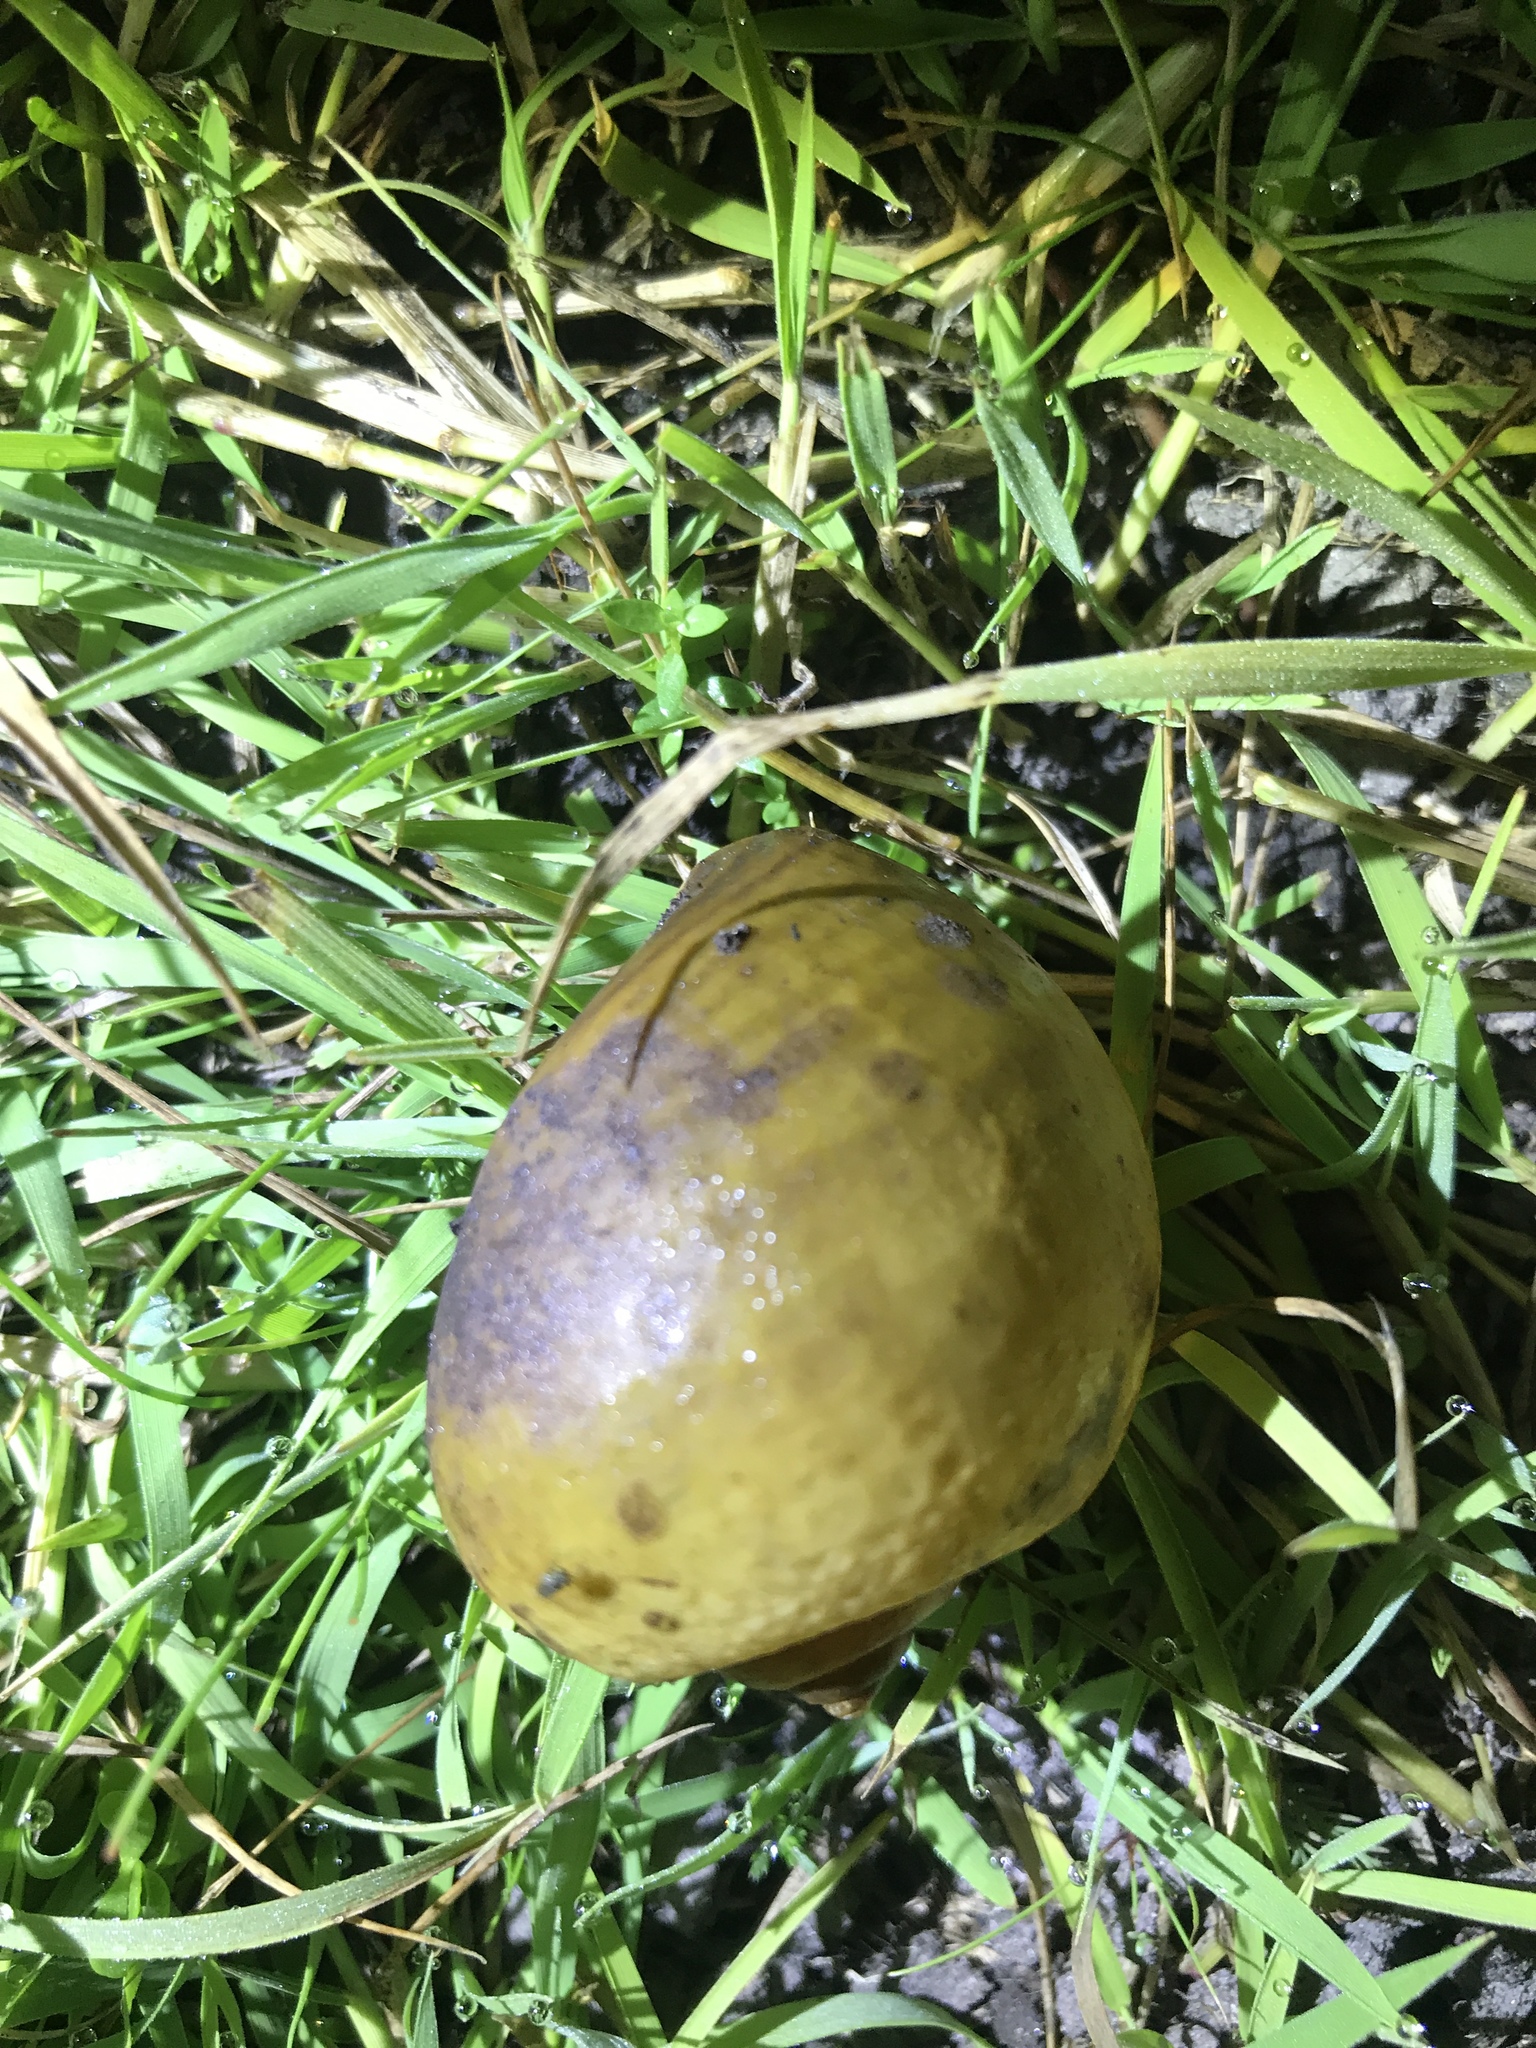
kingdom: Animalia
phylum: Mollusca
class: Gastropoda
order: Architaenioglossa
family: Ampullariidae
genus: Pomacea
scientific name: Pomacea canaliculata
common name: Channeled applesnail
